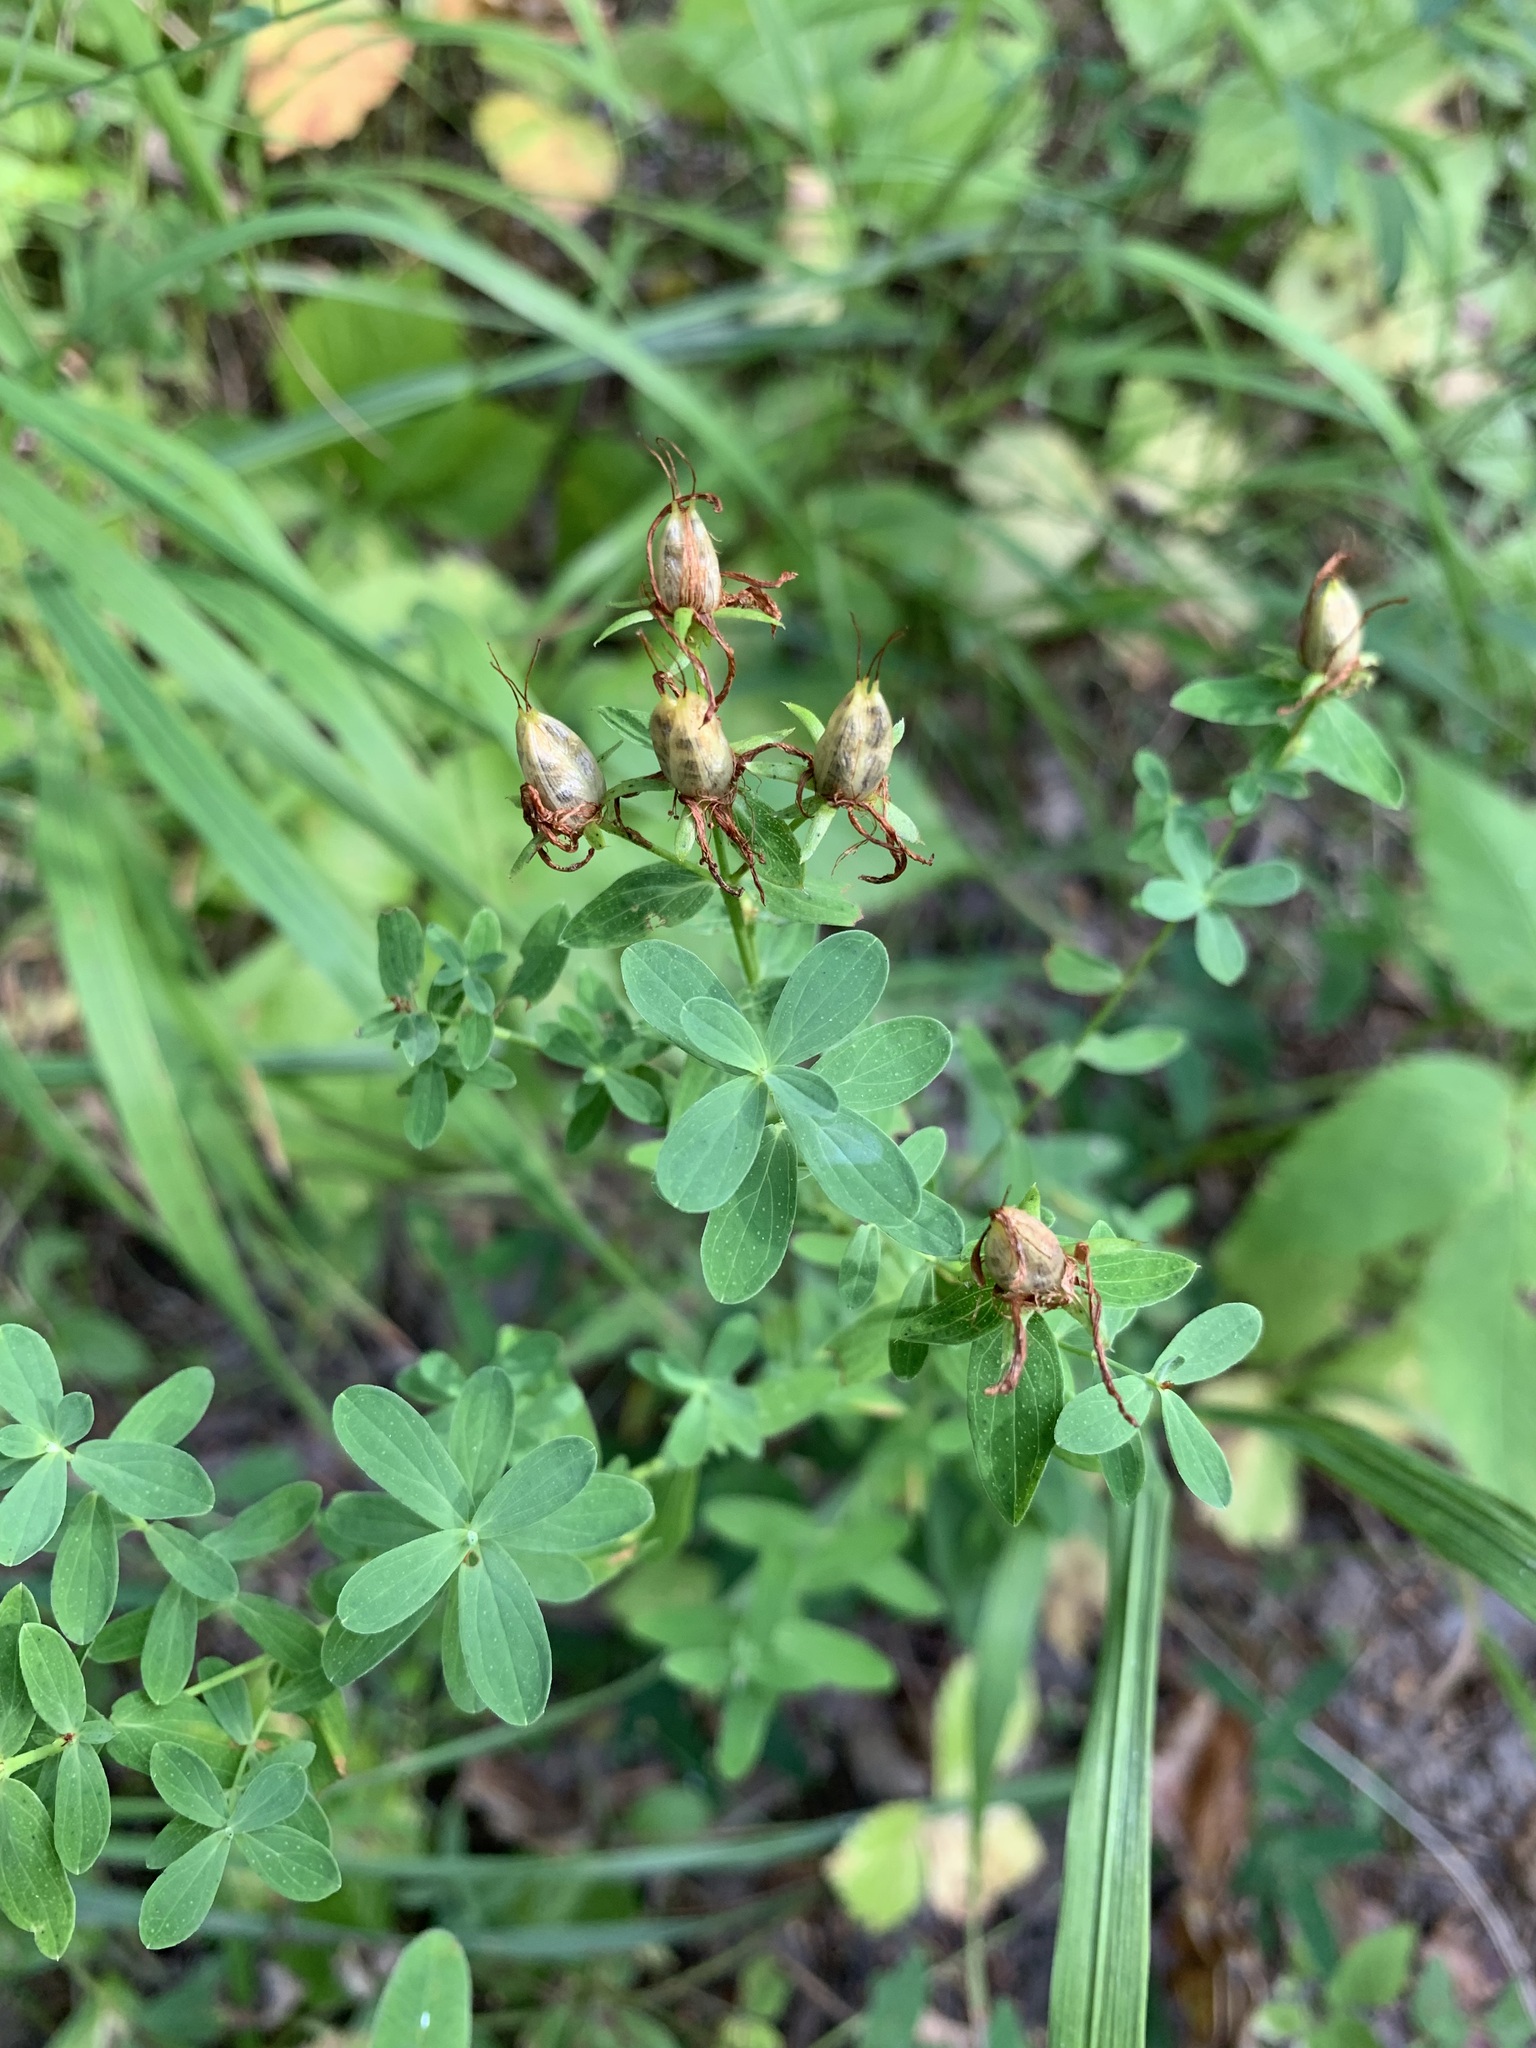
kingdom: Plantae
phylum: Tracheophyta
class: Magnoliopsida
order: Malpighiales
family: Hypericaceae
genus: Hypericum
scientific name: Hypericum perforatum
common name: Common st. johnswort
